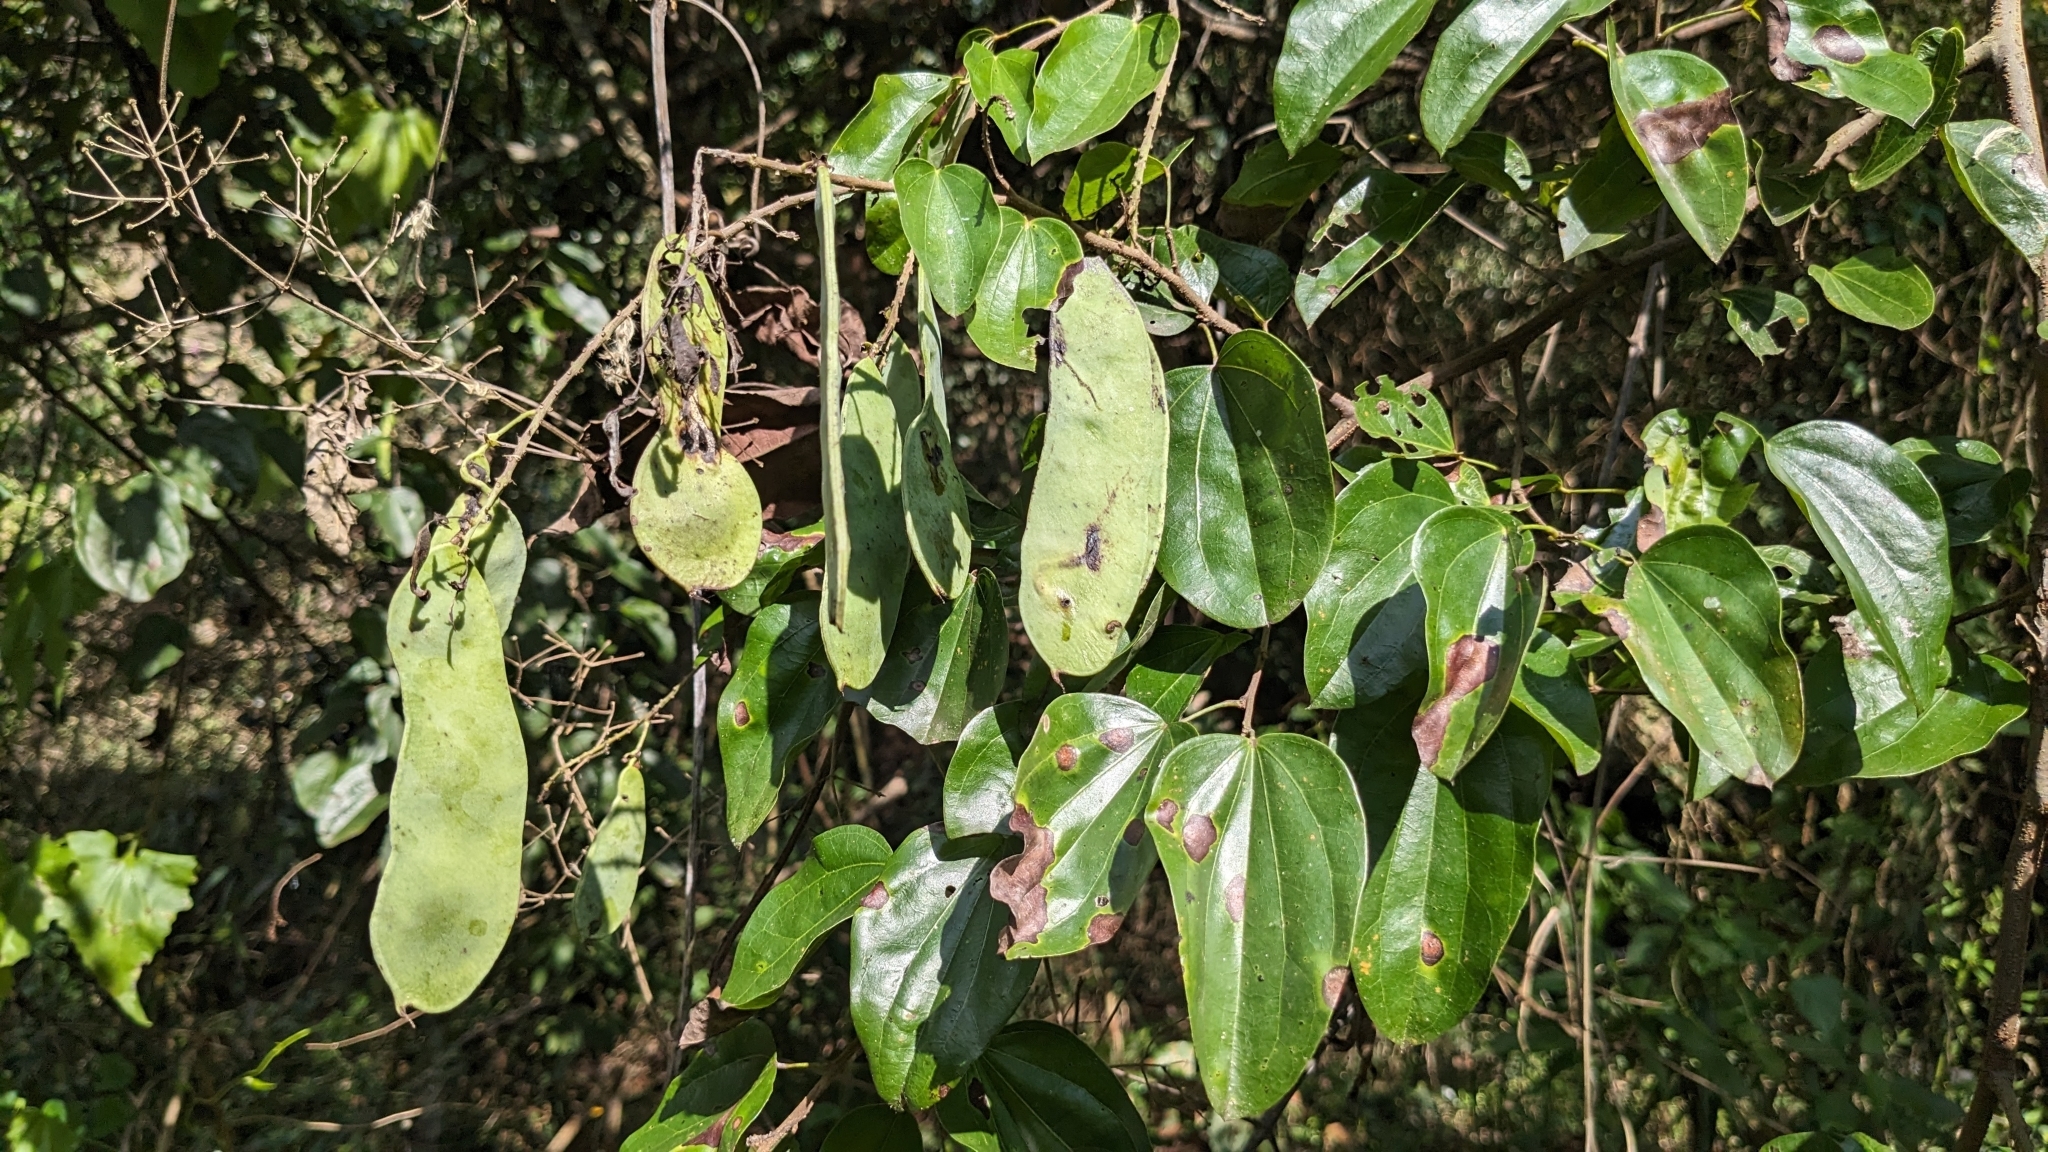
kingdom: Plantae
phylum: Tracheophyta
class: Magnoliopsida
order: Fabales
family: Fabaceae
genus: Phanera
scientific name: Phanera championii
